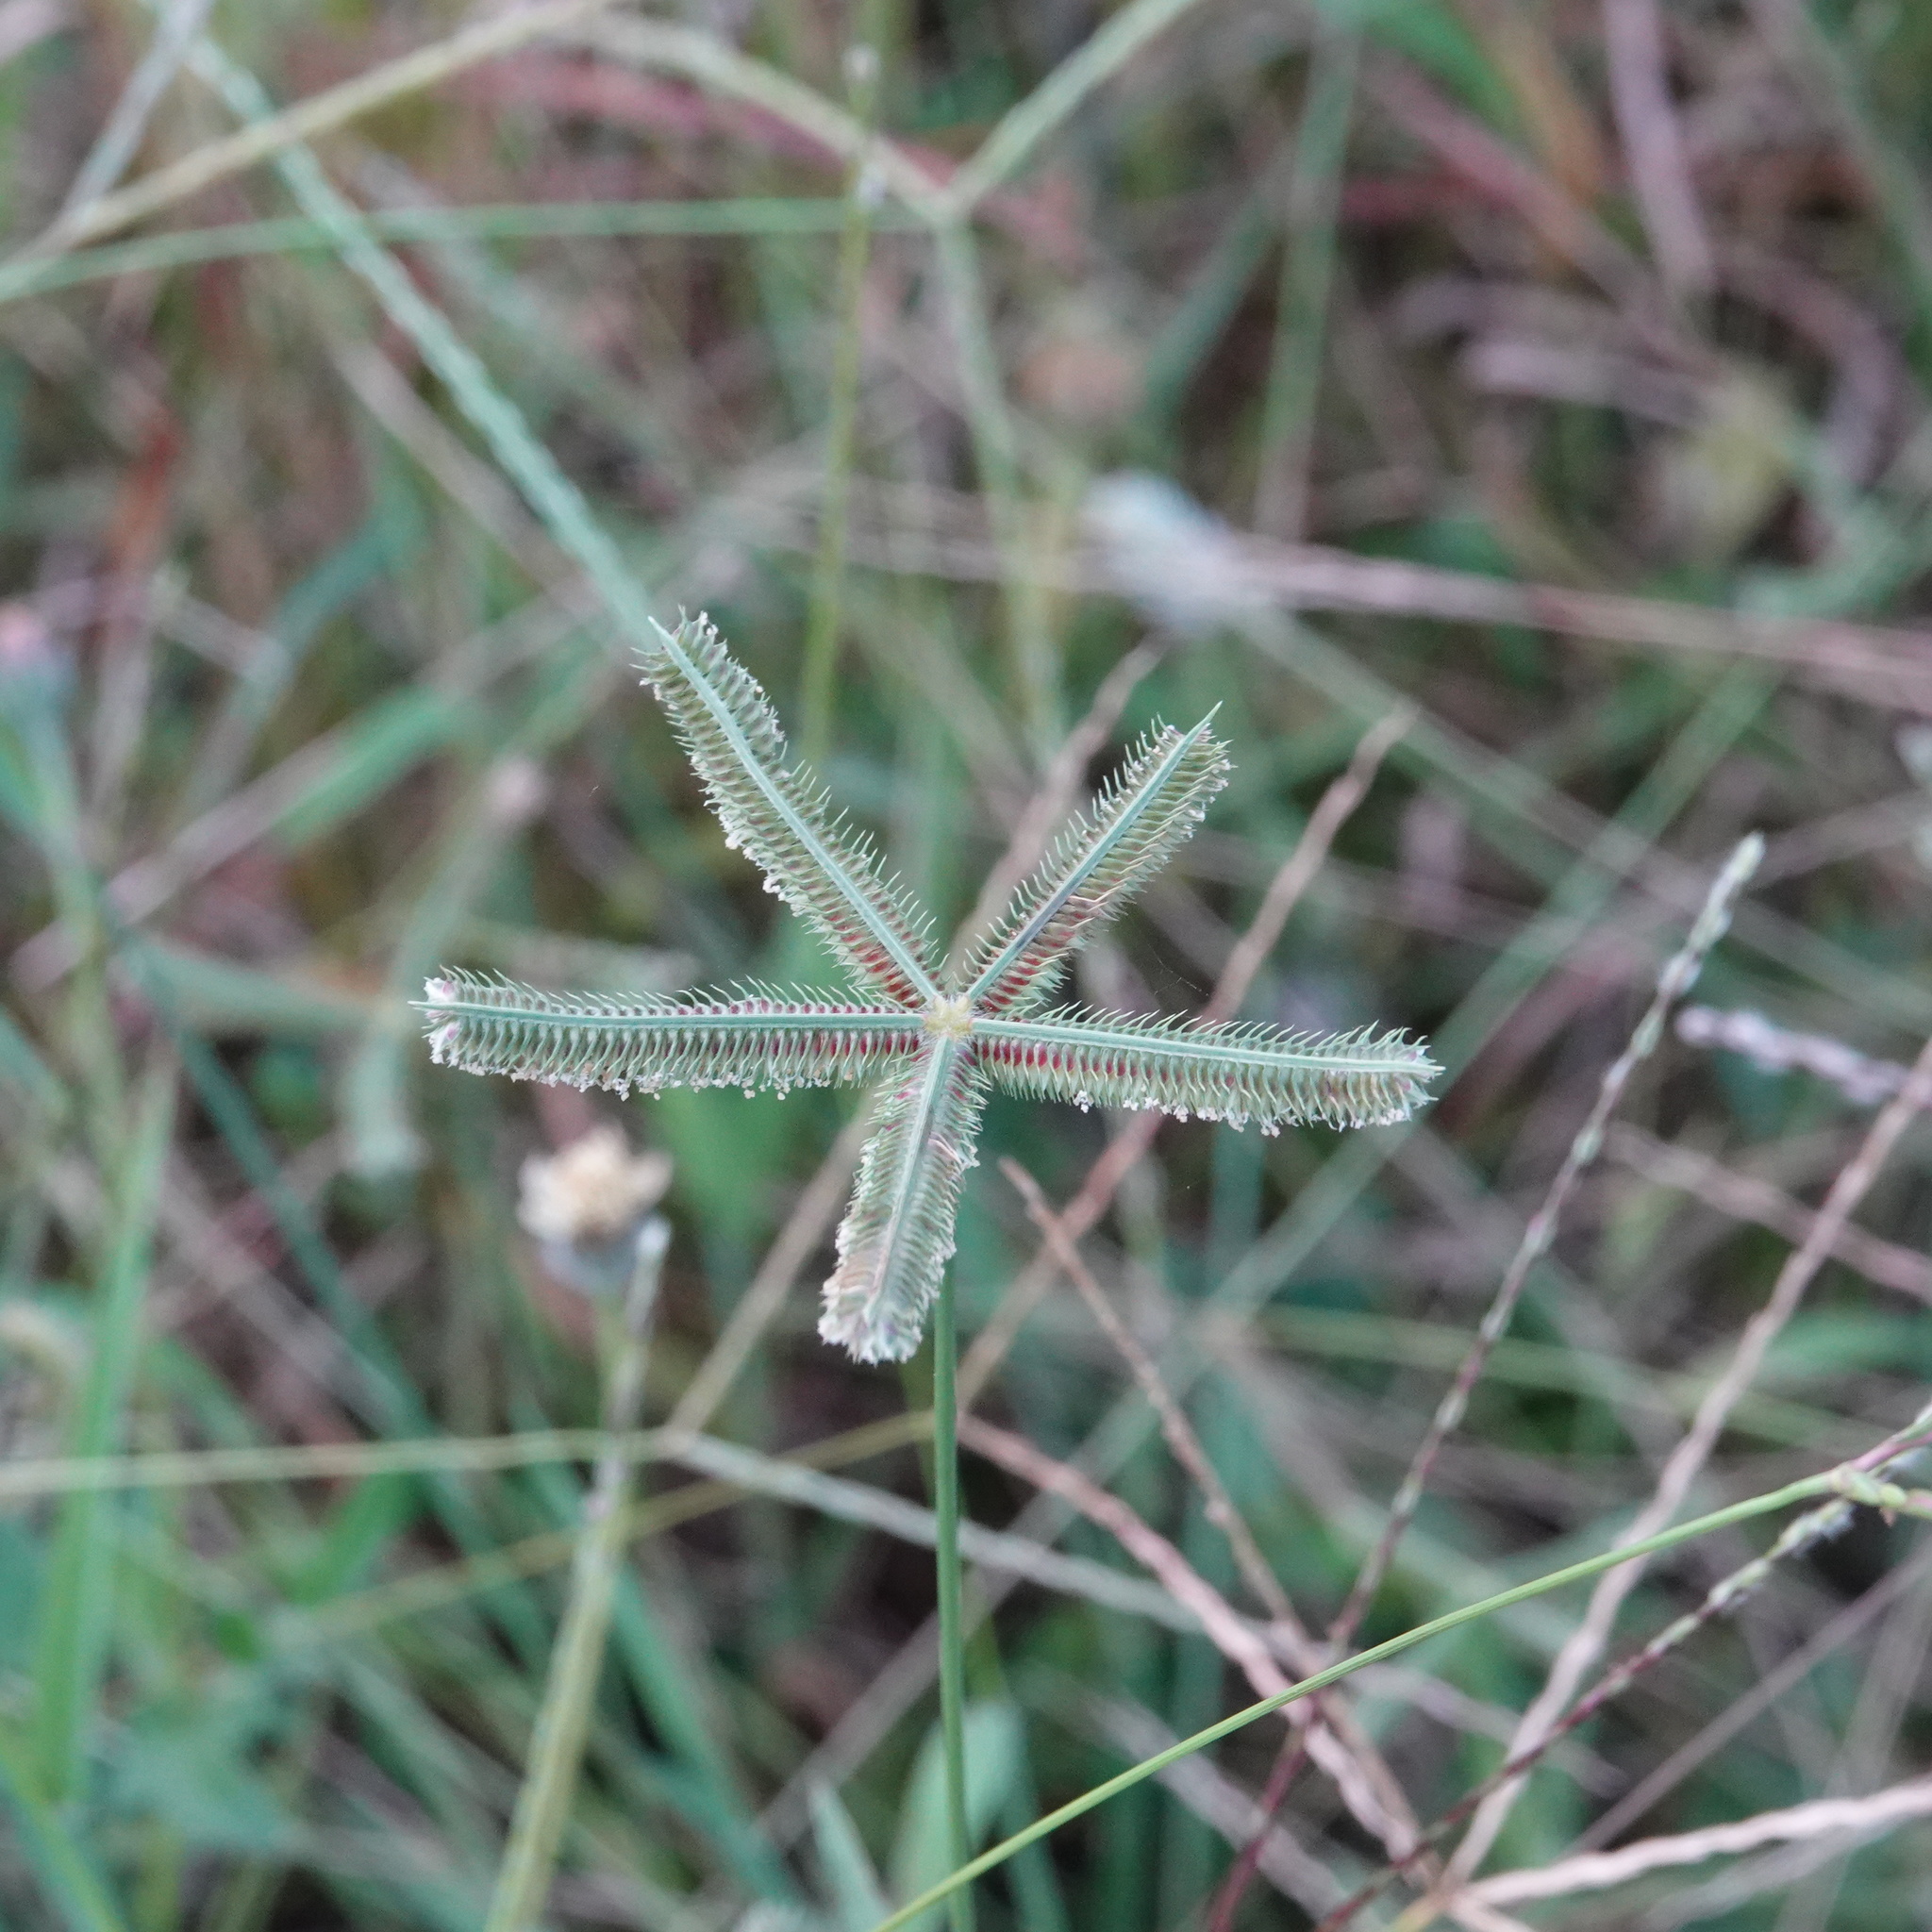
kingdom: Plantae
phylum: Tracheophyta
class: Liliopsida
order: Poales
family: Poaceae
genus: Dactyloctenium
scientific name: Dactyloctenium aegyptium
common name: Egyptian grass
